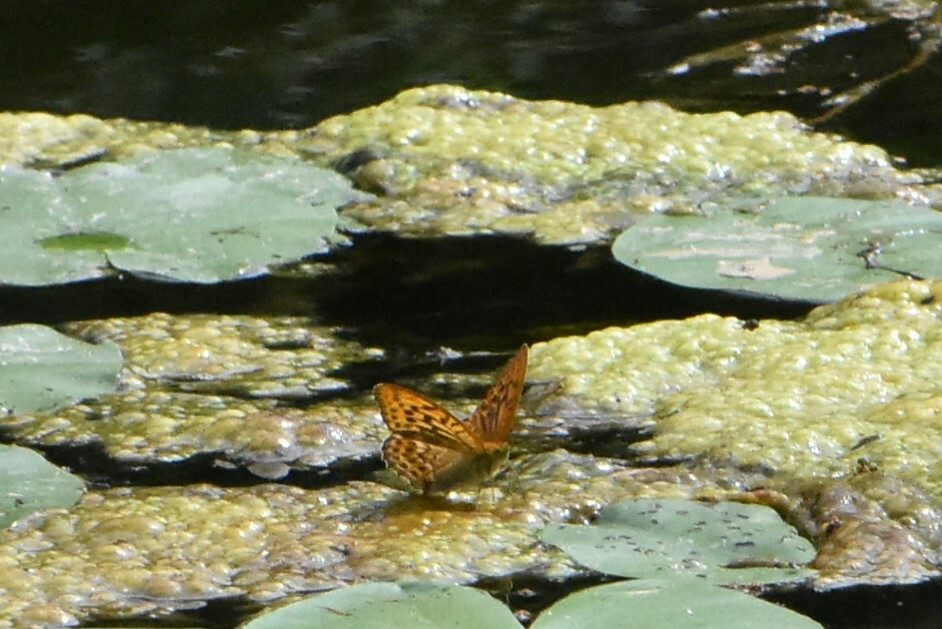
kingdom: Animalia
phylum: Arthropoda
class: Insecta
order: Lepidoptera
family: Nymphalidae
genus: Argynnis
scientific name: Argynnis paphia
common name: Silver-washed fritillary
